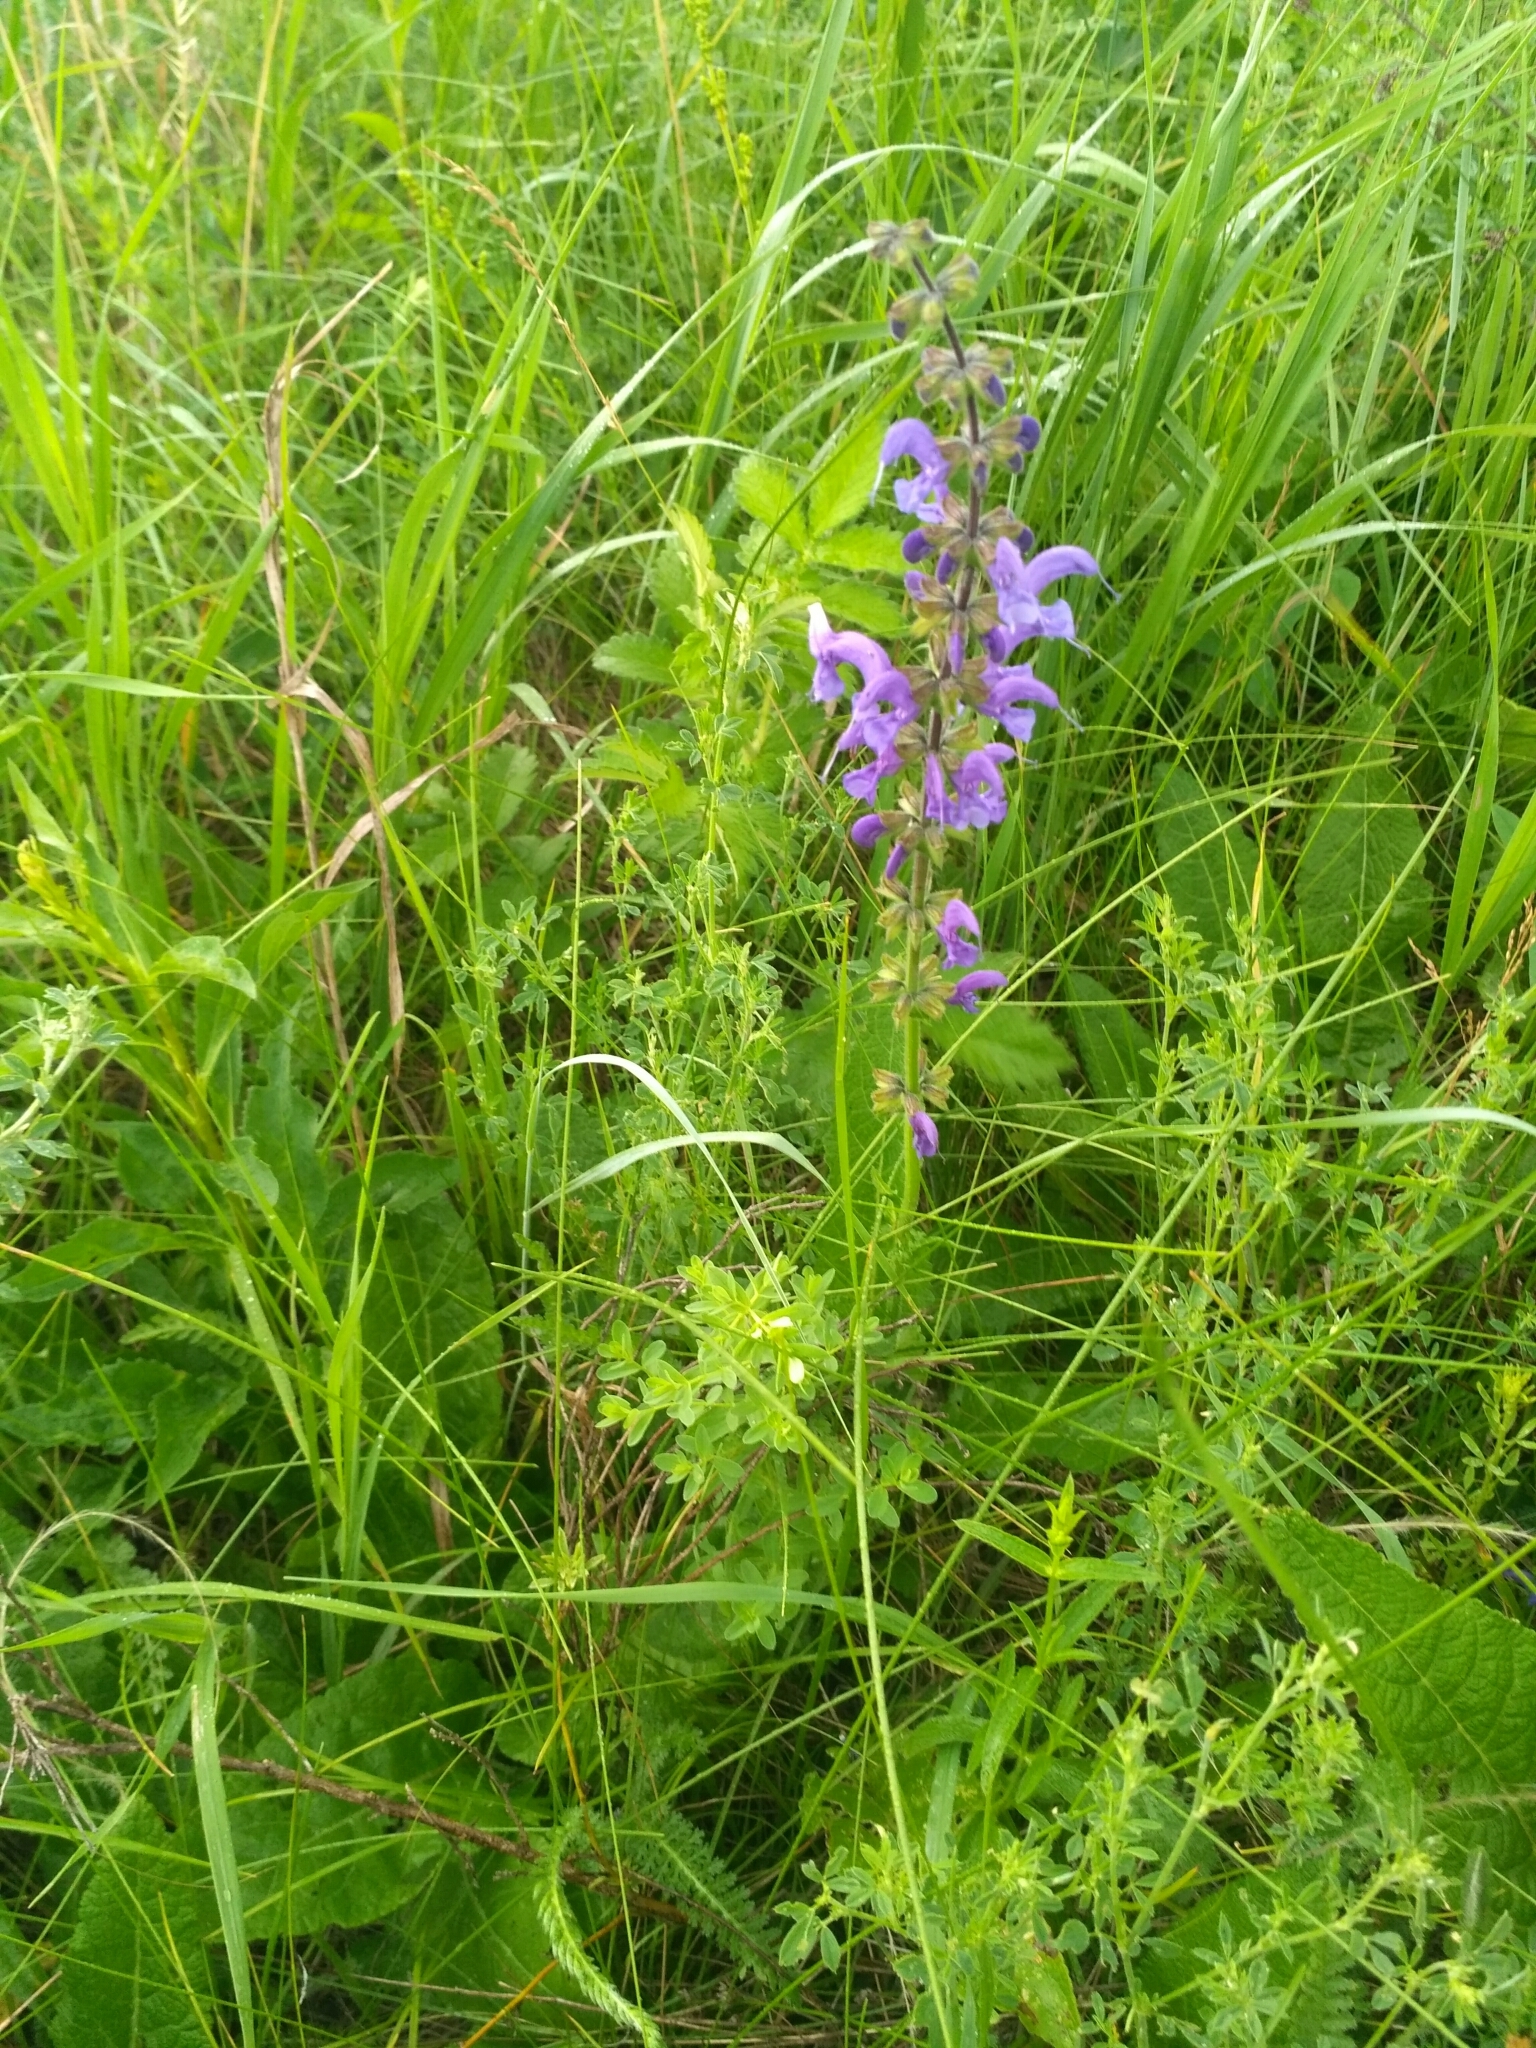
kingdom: Plantae
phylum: Tracheophyta
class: Magnoliopsida
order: Lamiales
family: Lamiaceae
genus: Salvia
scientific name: Salvia pratensis
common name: Meadow sage
